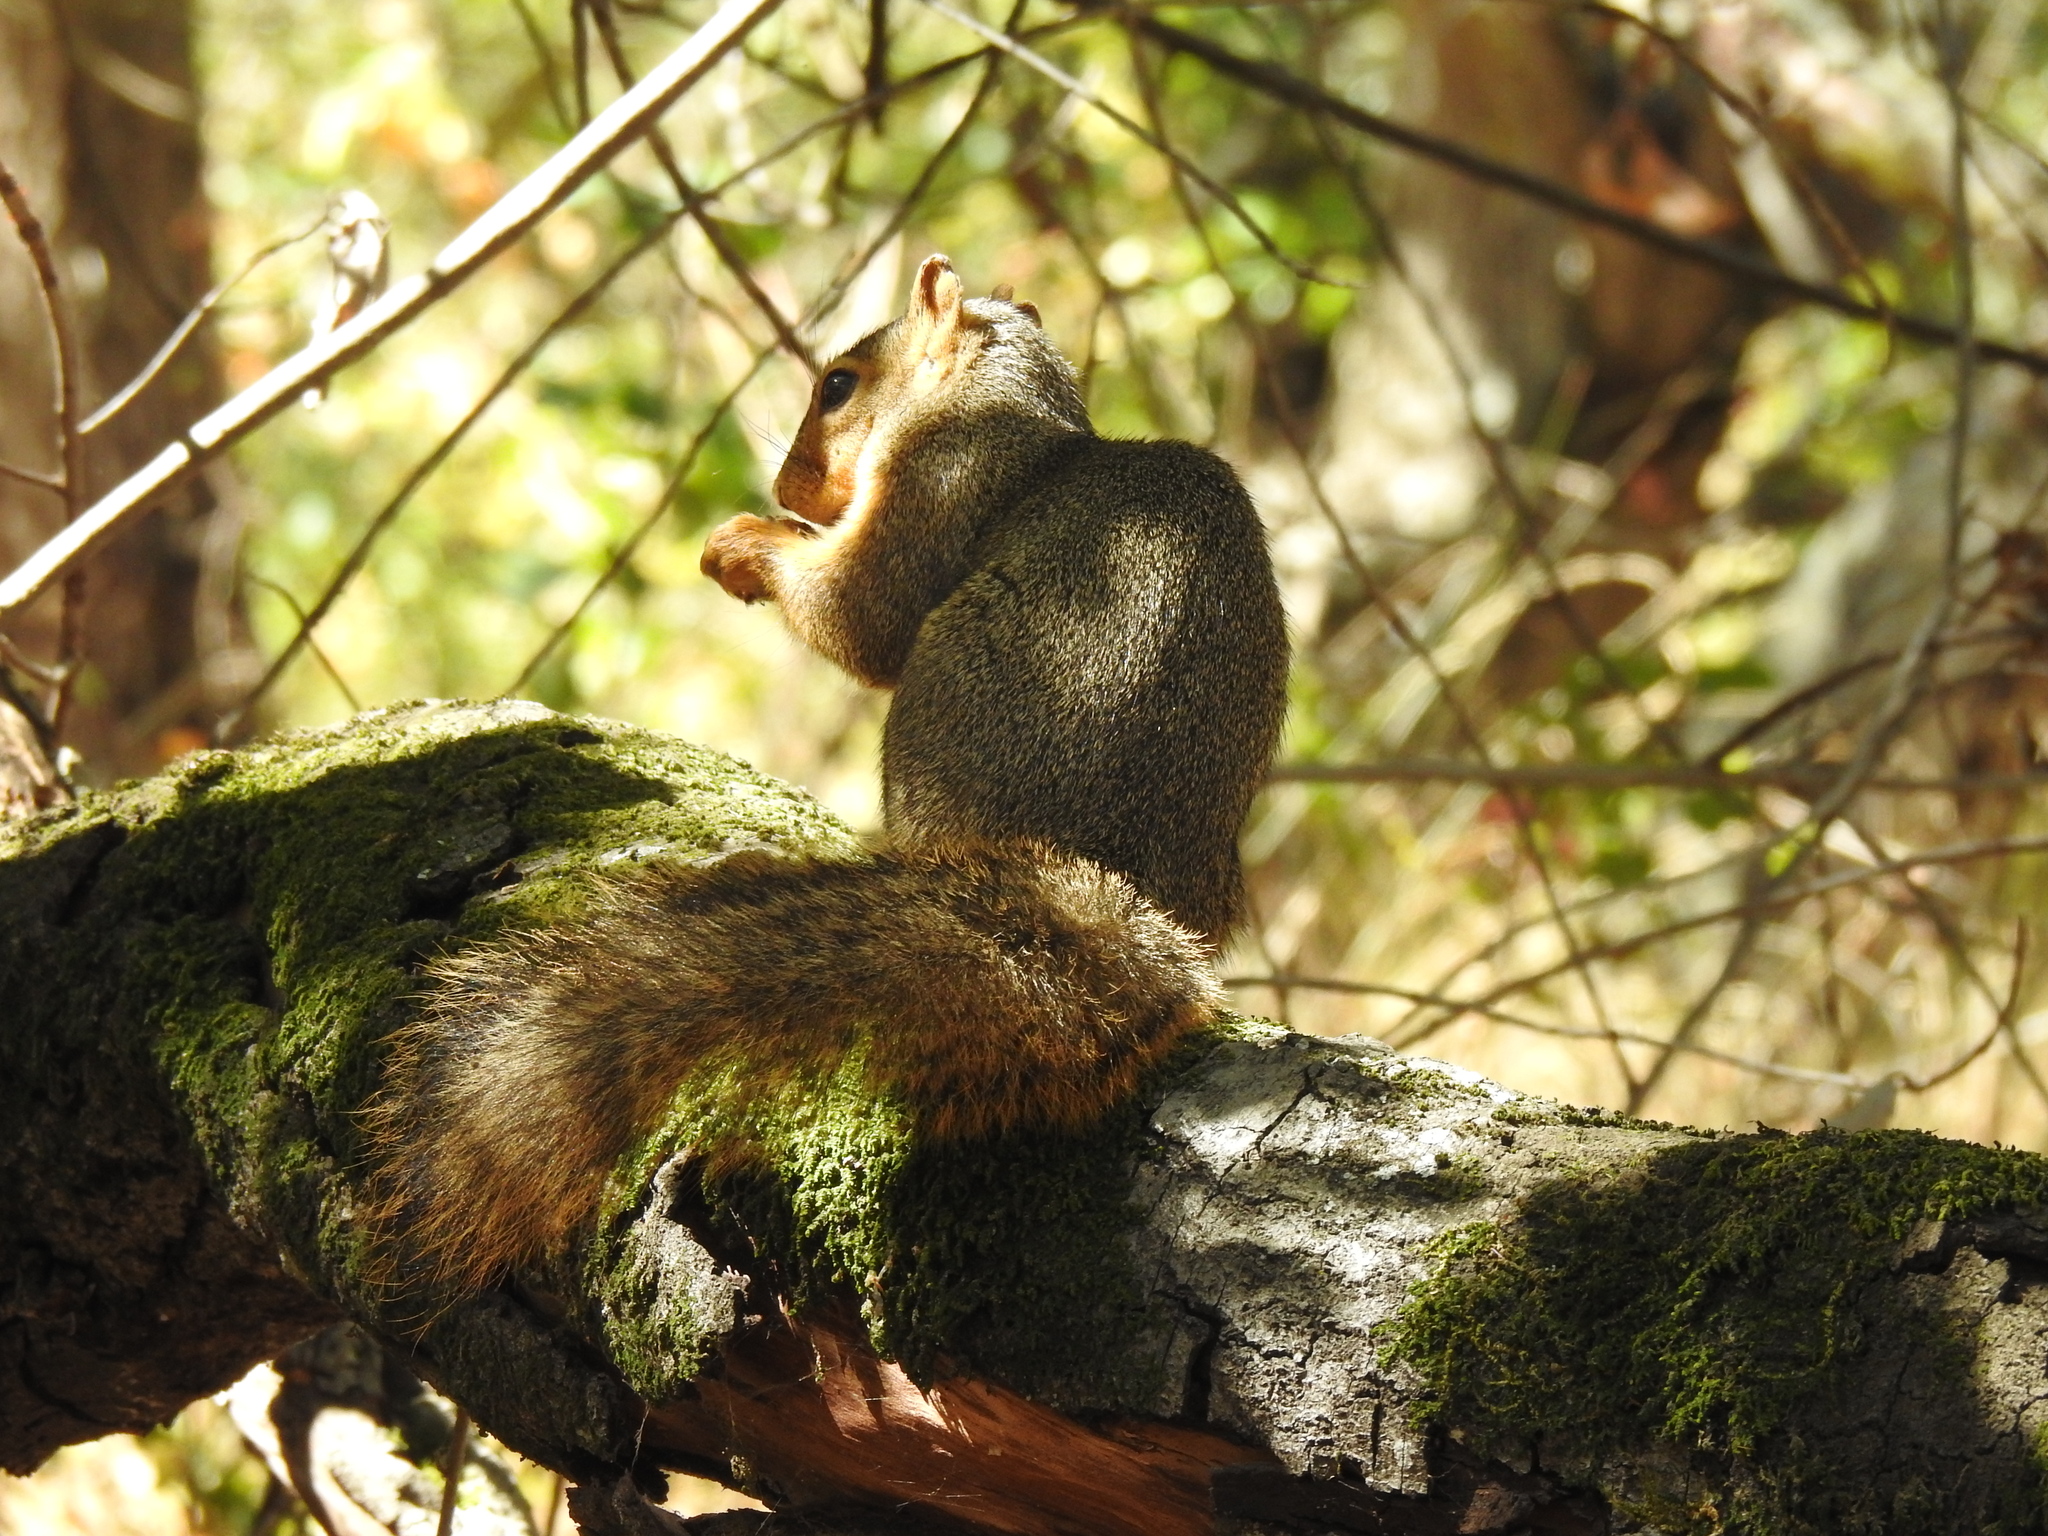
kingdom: Animalia
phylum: Chordata
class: Mammalia
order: Rodentia
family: Sciuridae
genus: Sciurus
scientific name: Sciurus niger
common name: Fox squirrel
